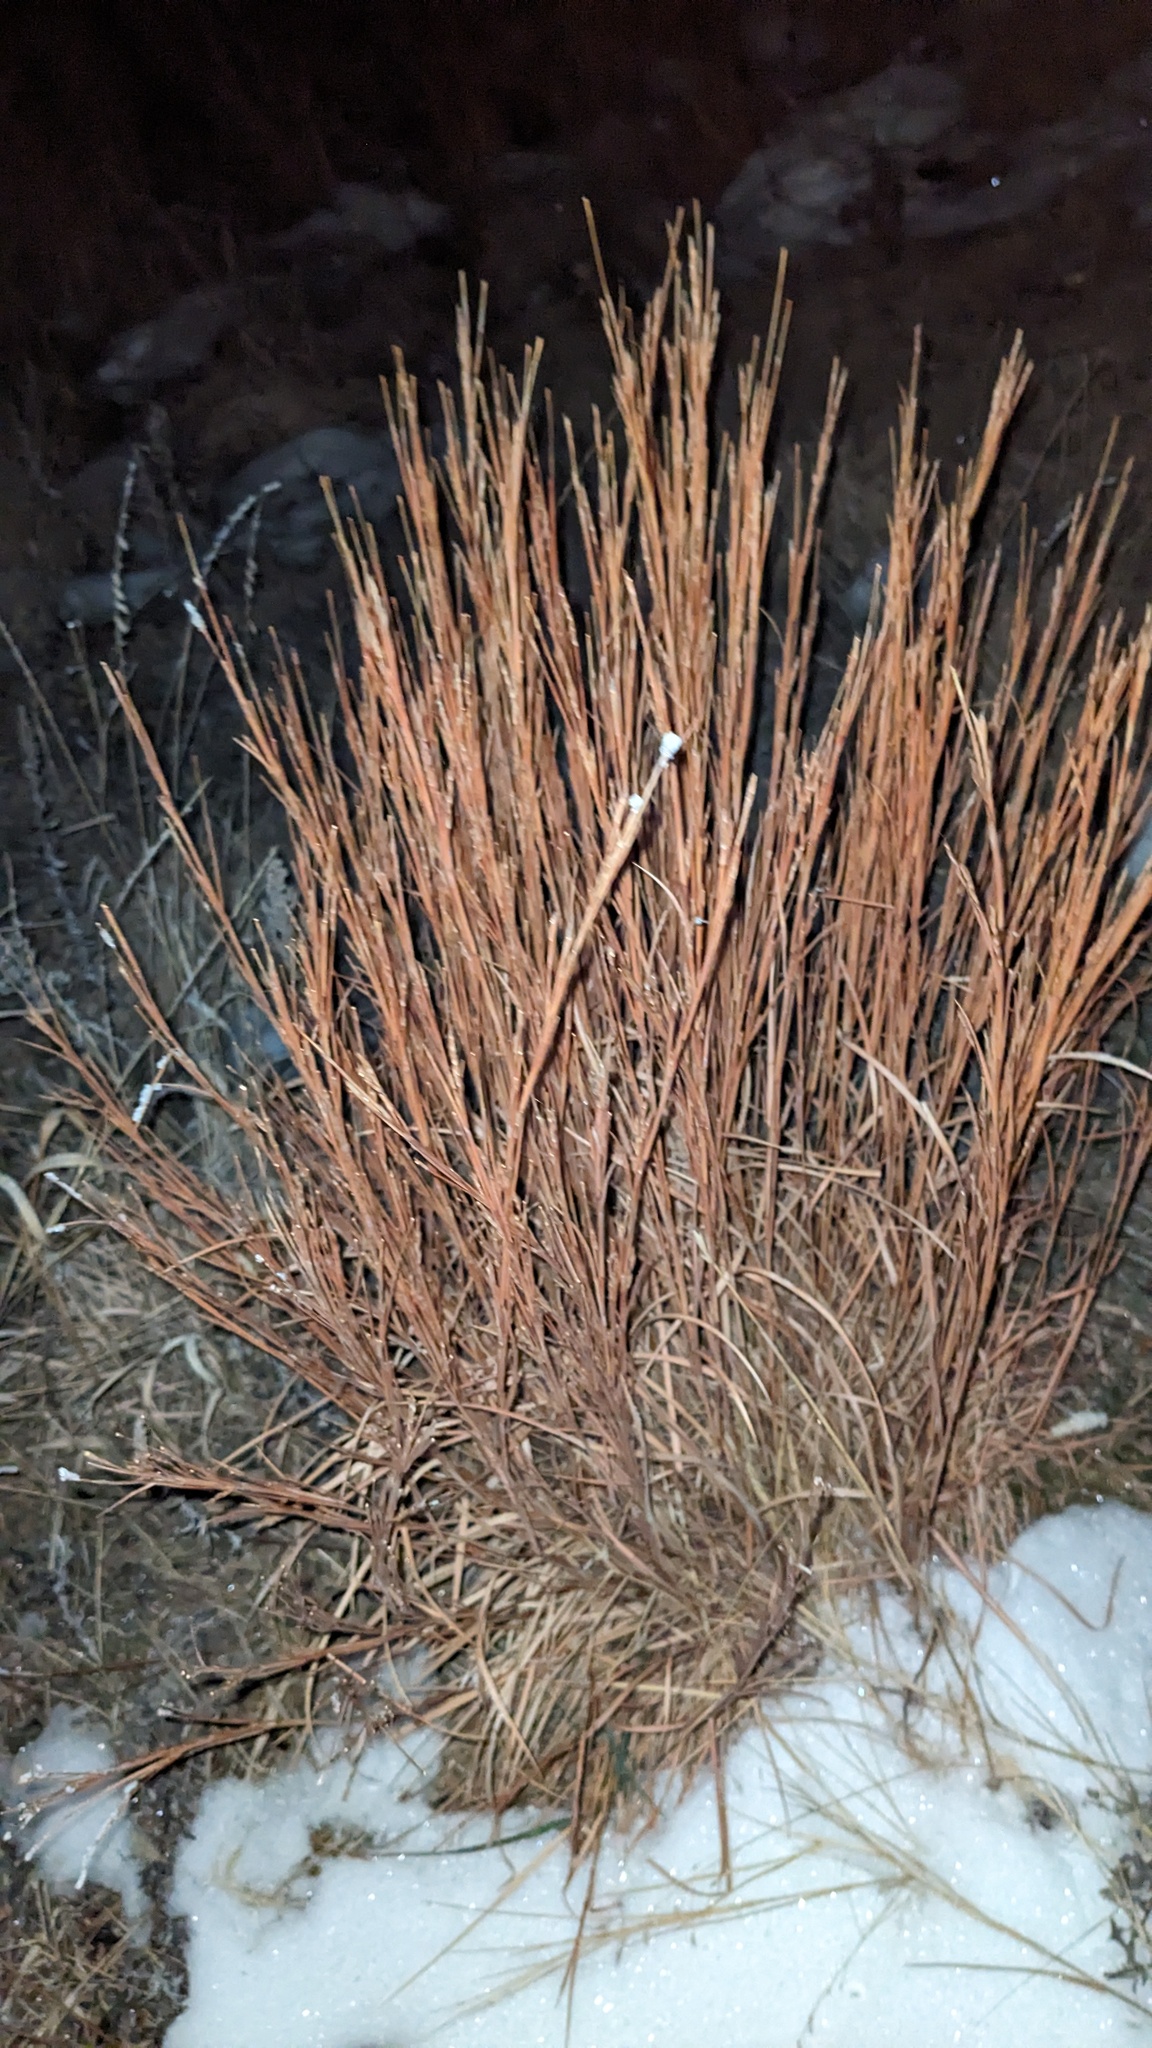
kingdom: Plantae
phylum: Tracheophyta
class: Liliopsida
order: Poales
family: Poaceae
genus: Schizachyrium
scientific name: Schizachyrium scoparium
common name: Little bluestem
